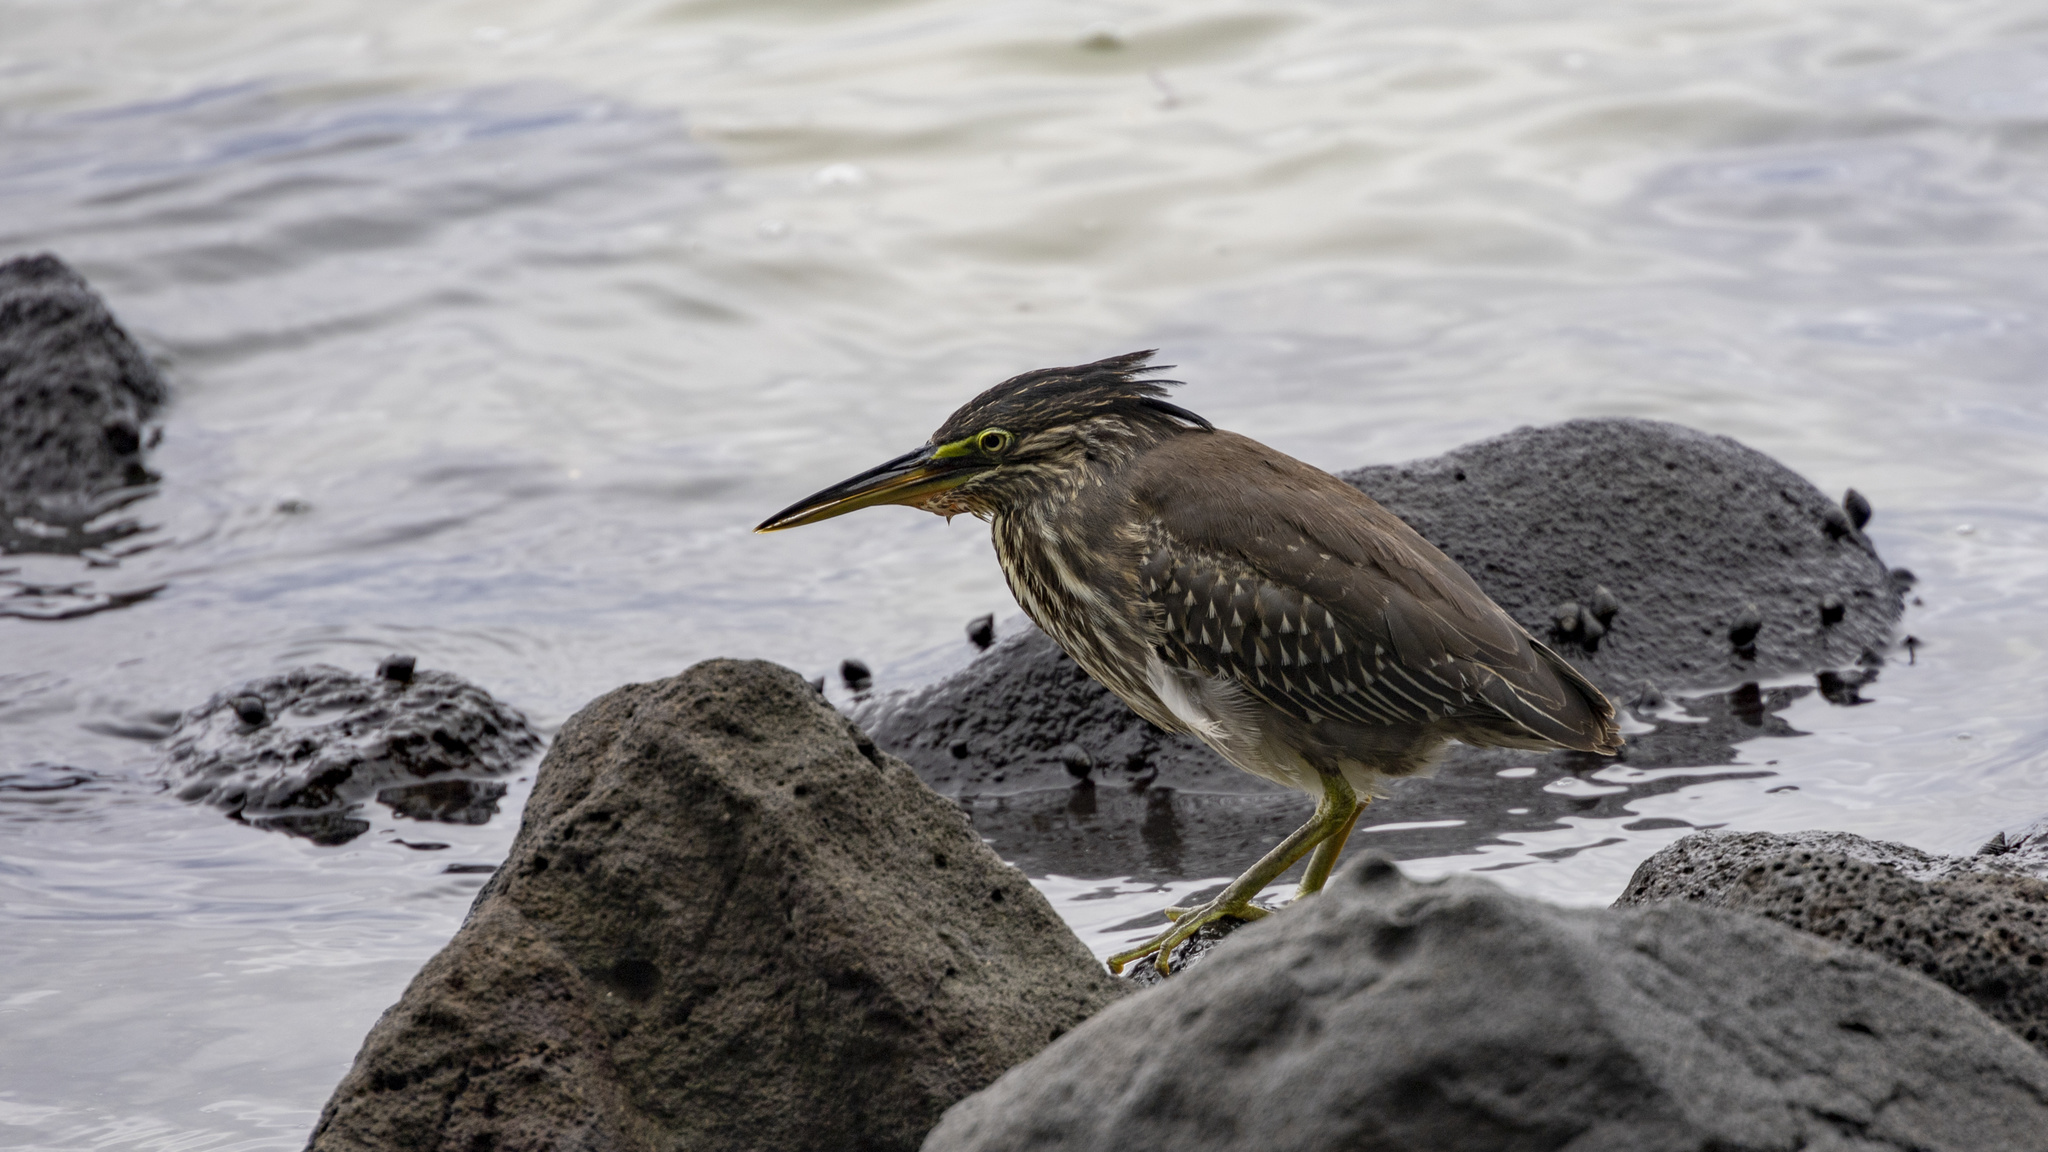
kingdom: Animalia
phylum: Chordata
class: Aves
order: Pelecaniformes
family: Ardeidae
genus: Butorides
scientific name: Butorides striata
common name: Striated heron
